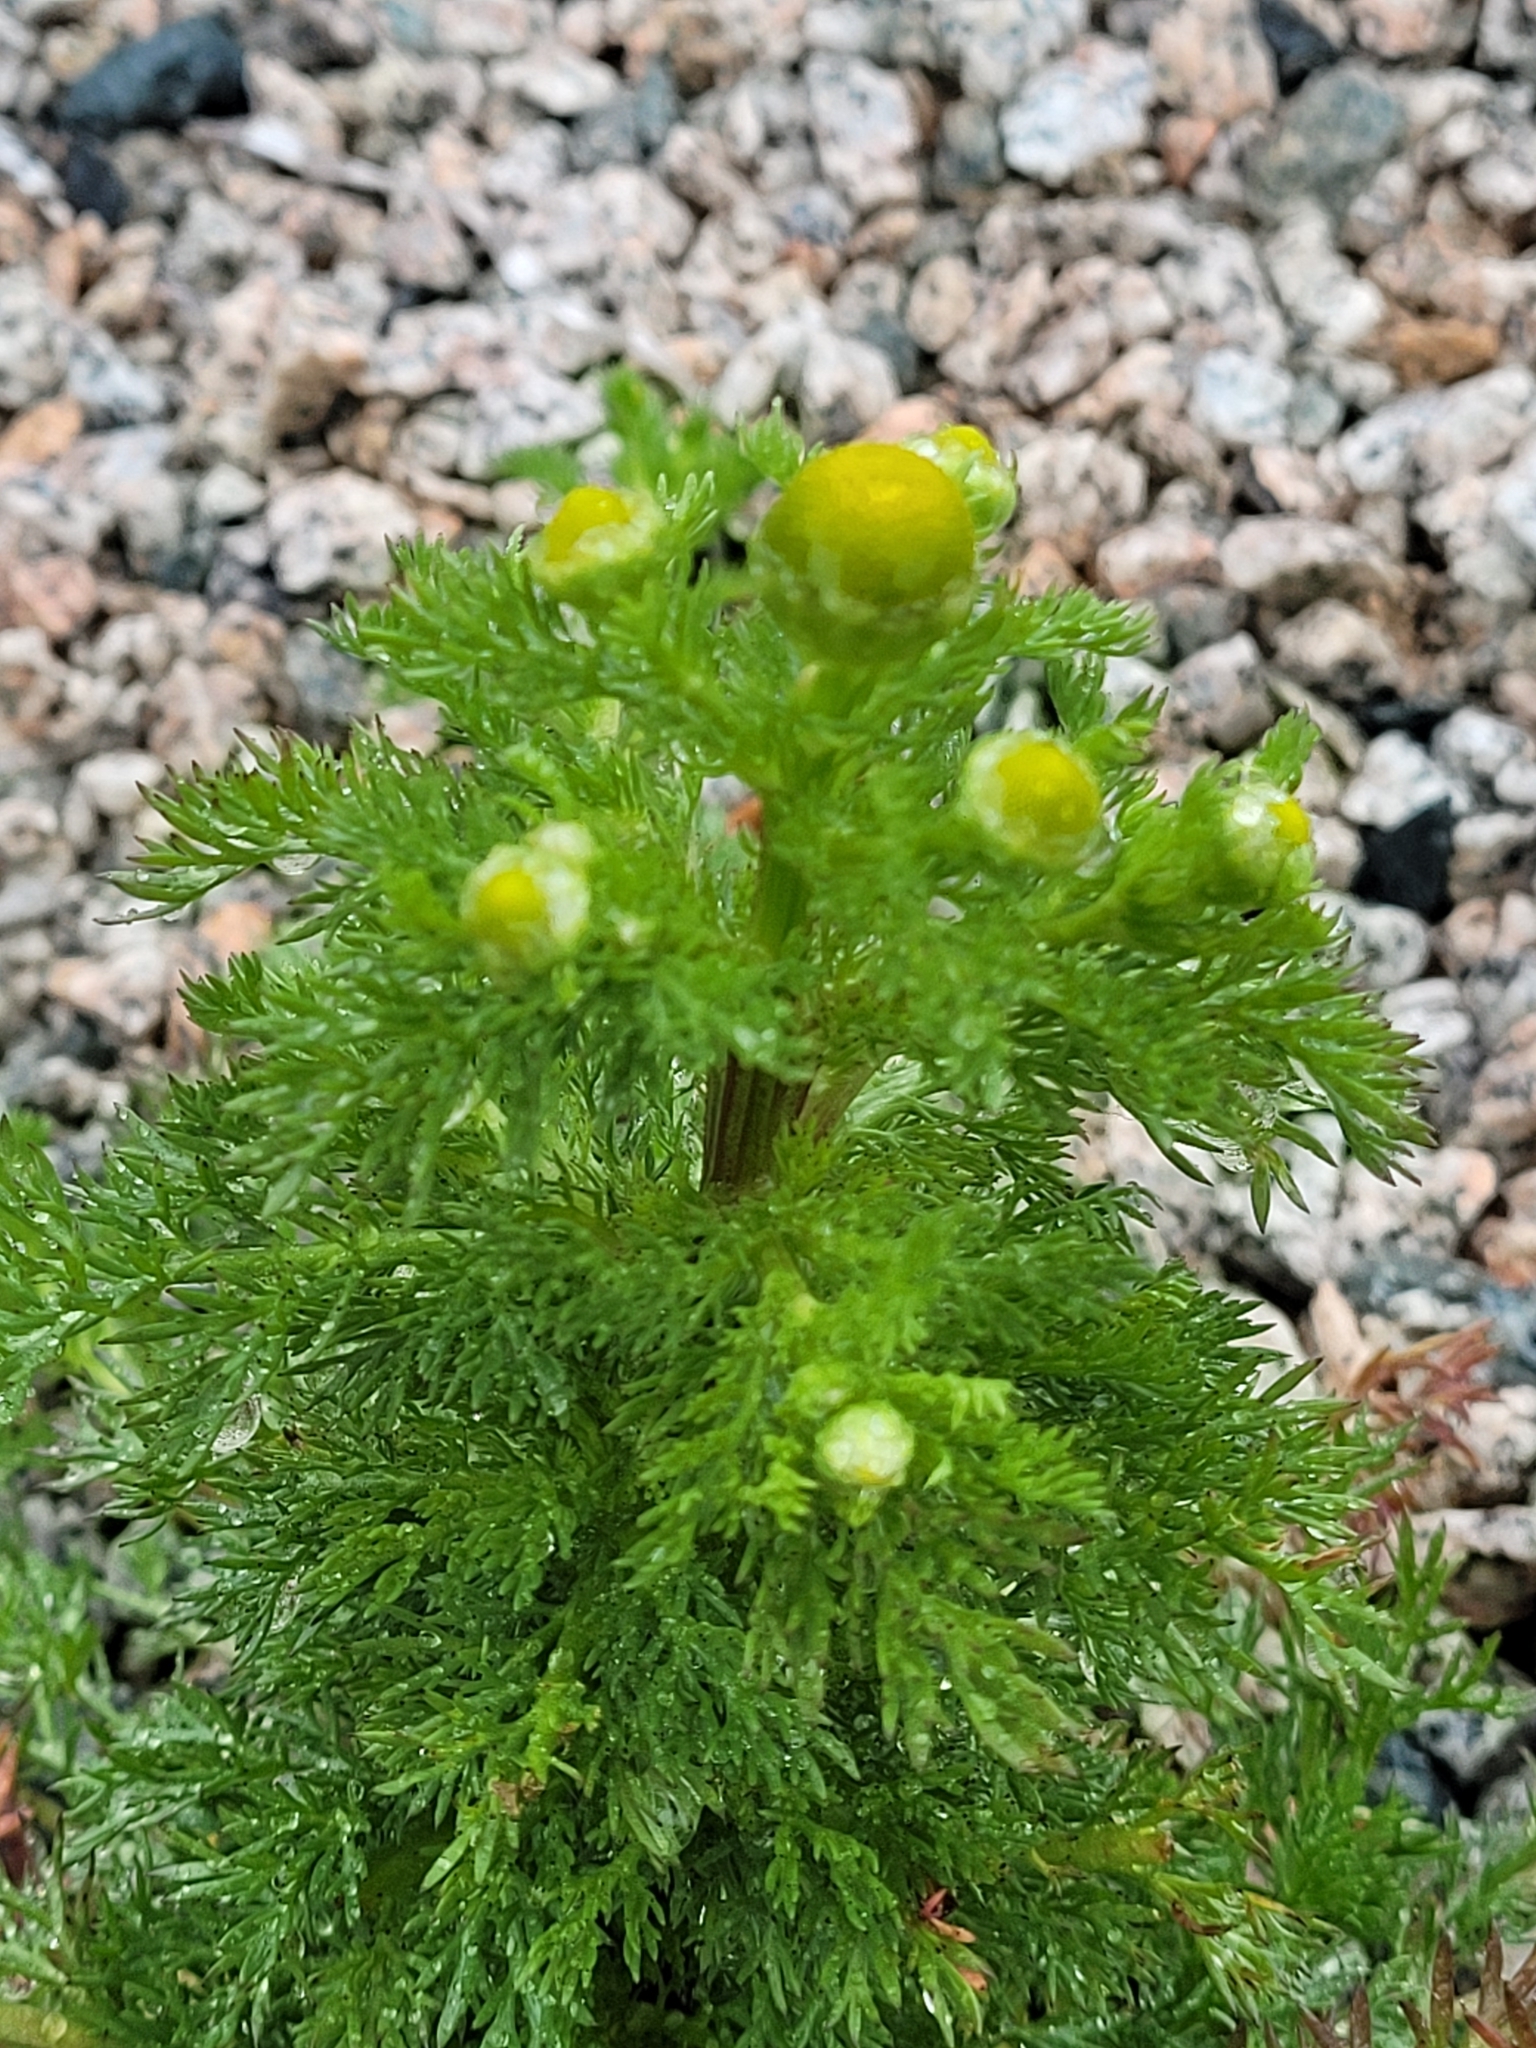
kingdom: Plantae
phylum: Tracheophyta
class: Magnoliopsida
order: Asterales
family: Asteraceae
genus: Matricaria
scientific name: Matricaria discoidea
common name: Disc mayweed
